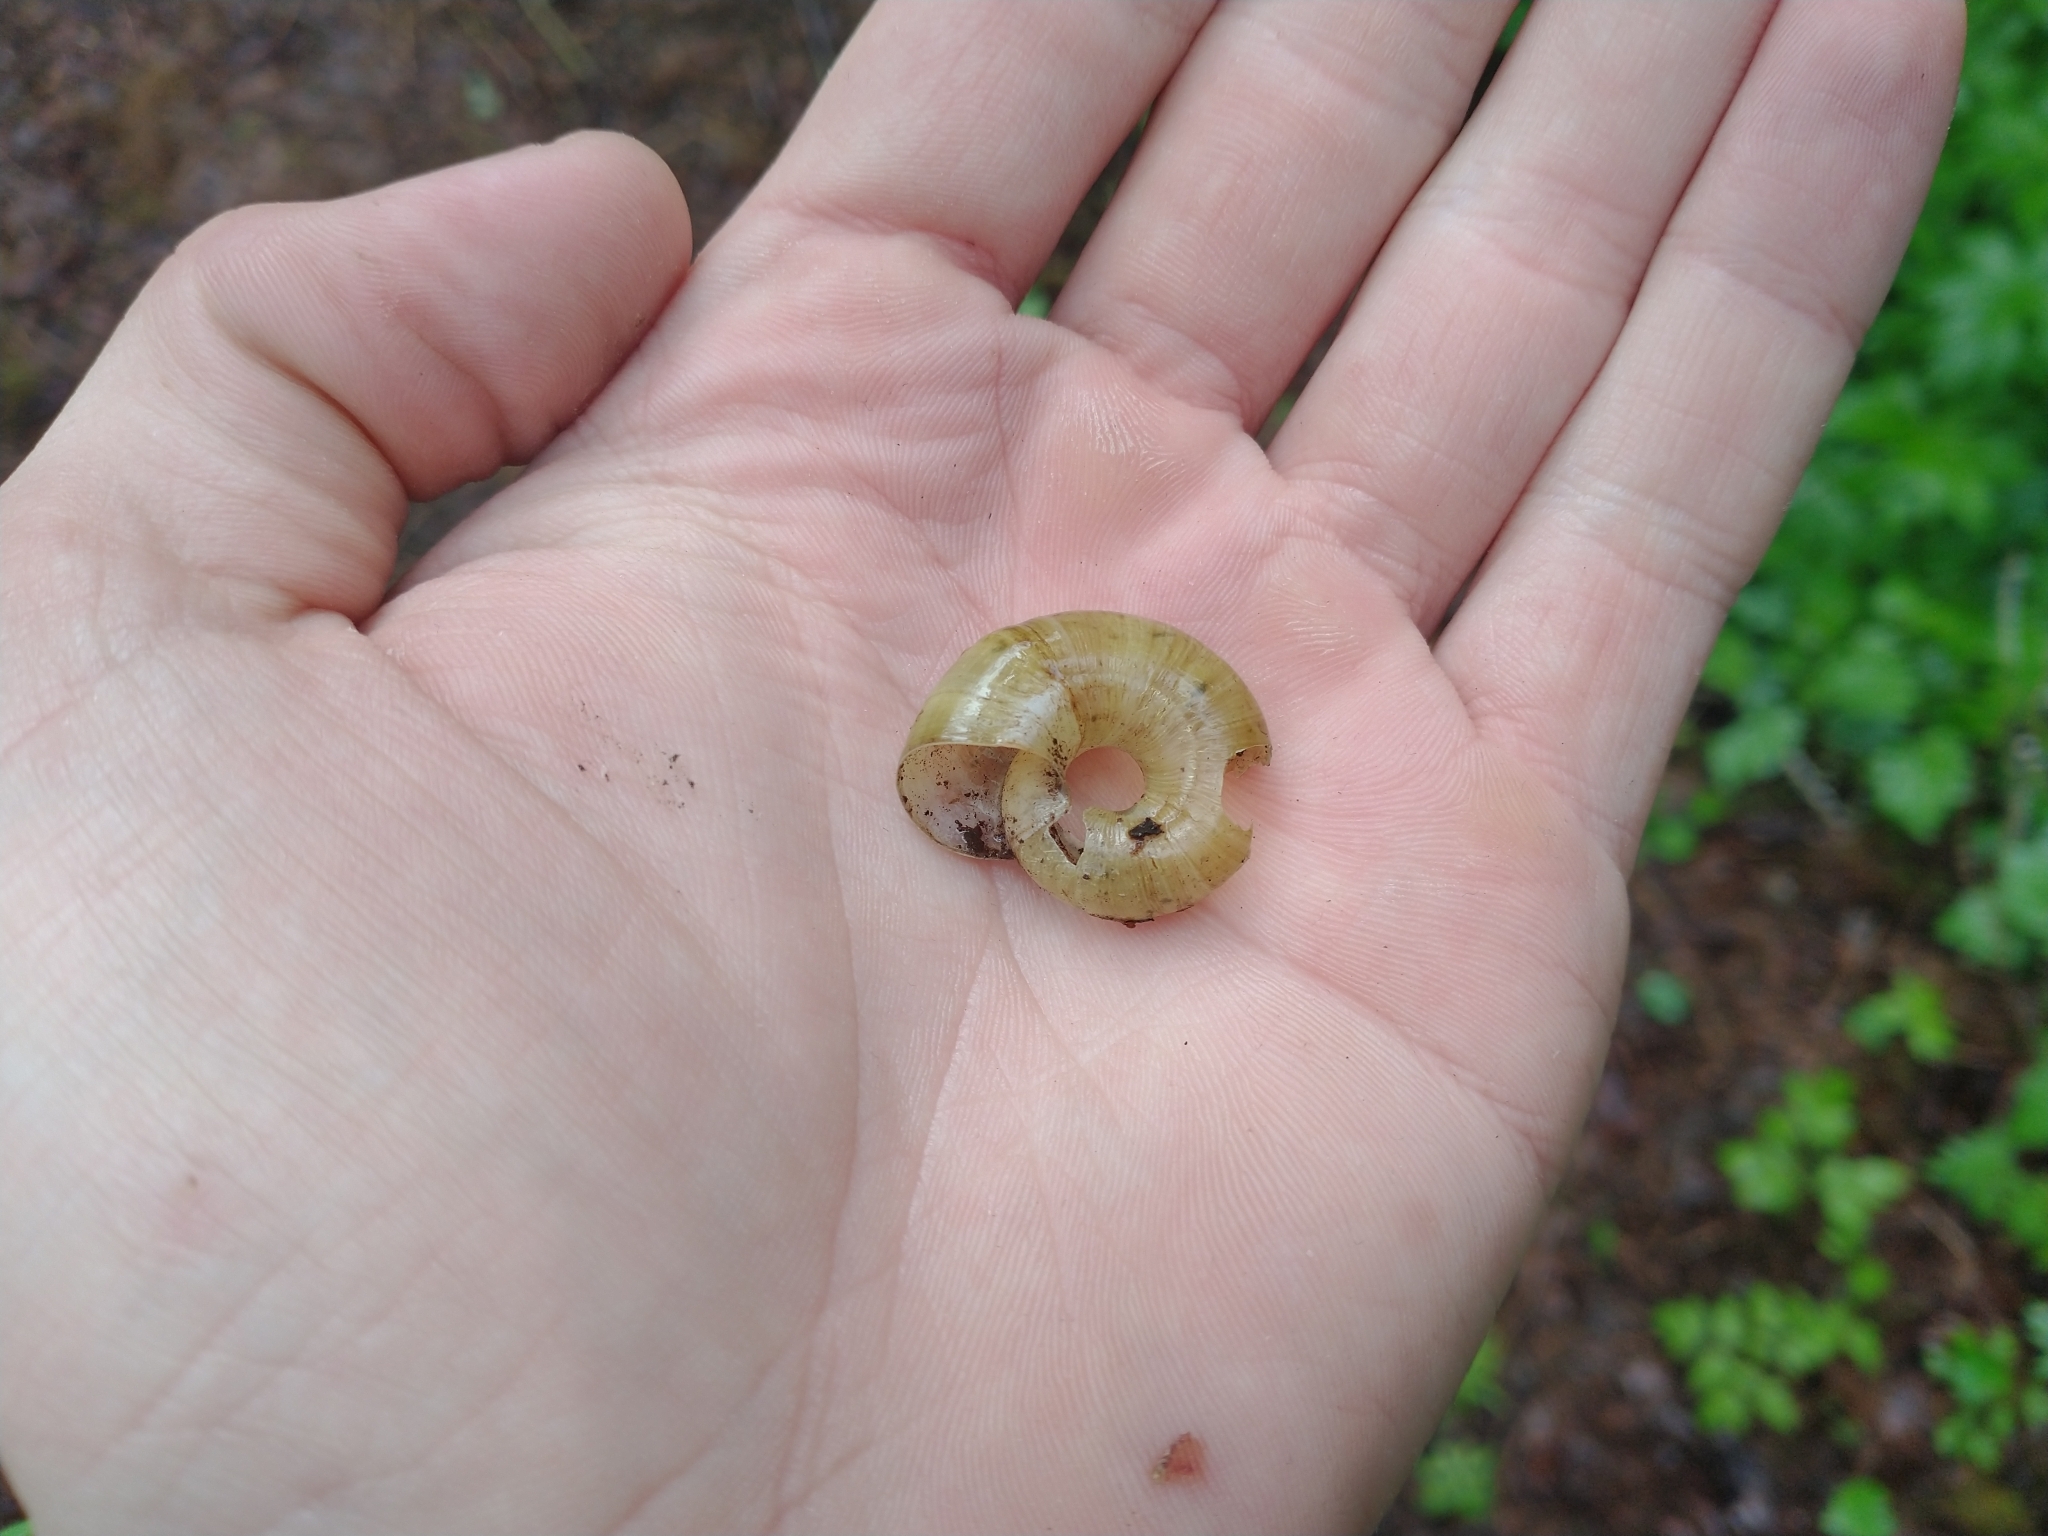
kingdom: Animalia
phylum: Mollusca
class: Gastropoda
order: Stylommatophora
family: Haplotrematidae
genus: Haplotrema
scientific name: Haplotrema vancouverense
